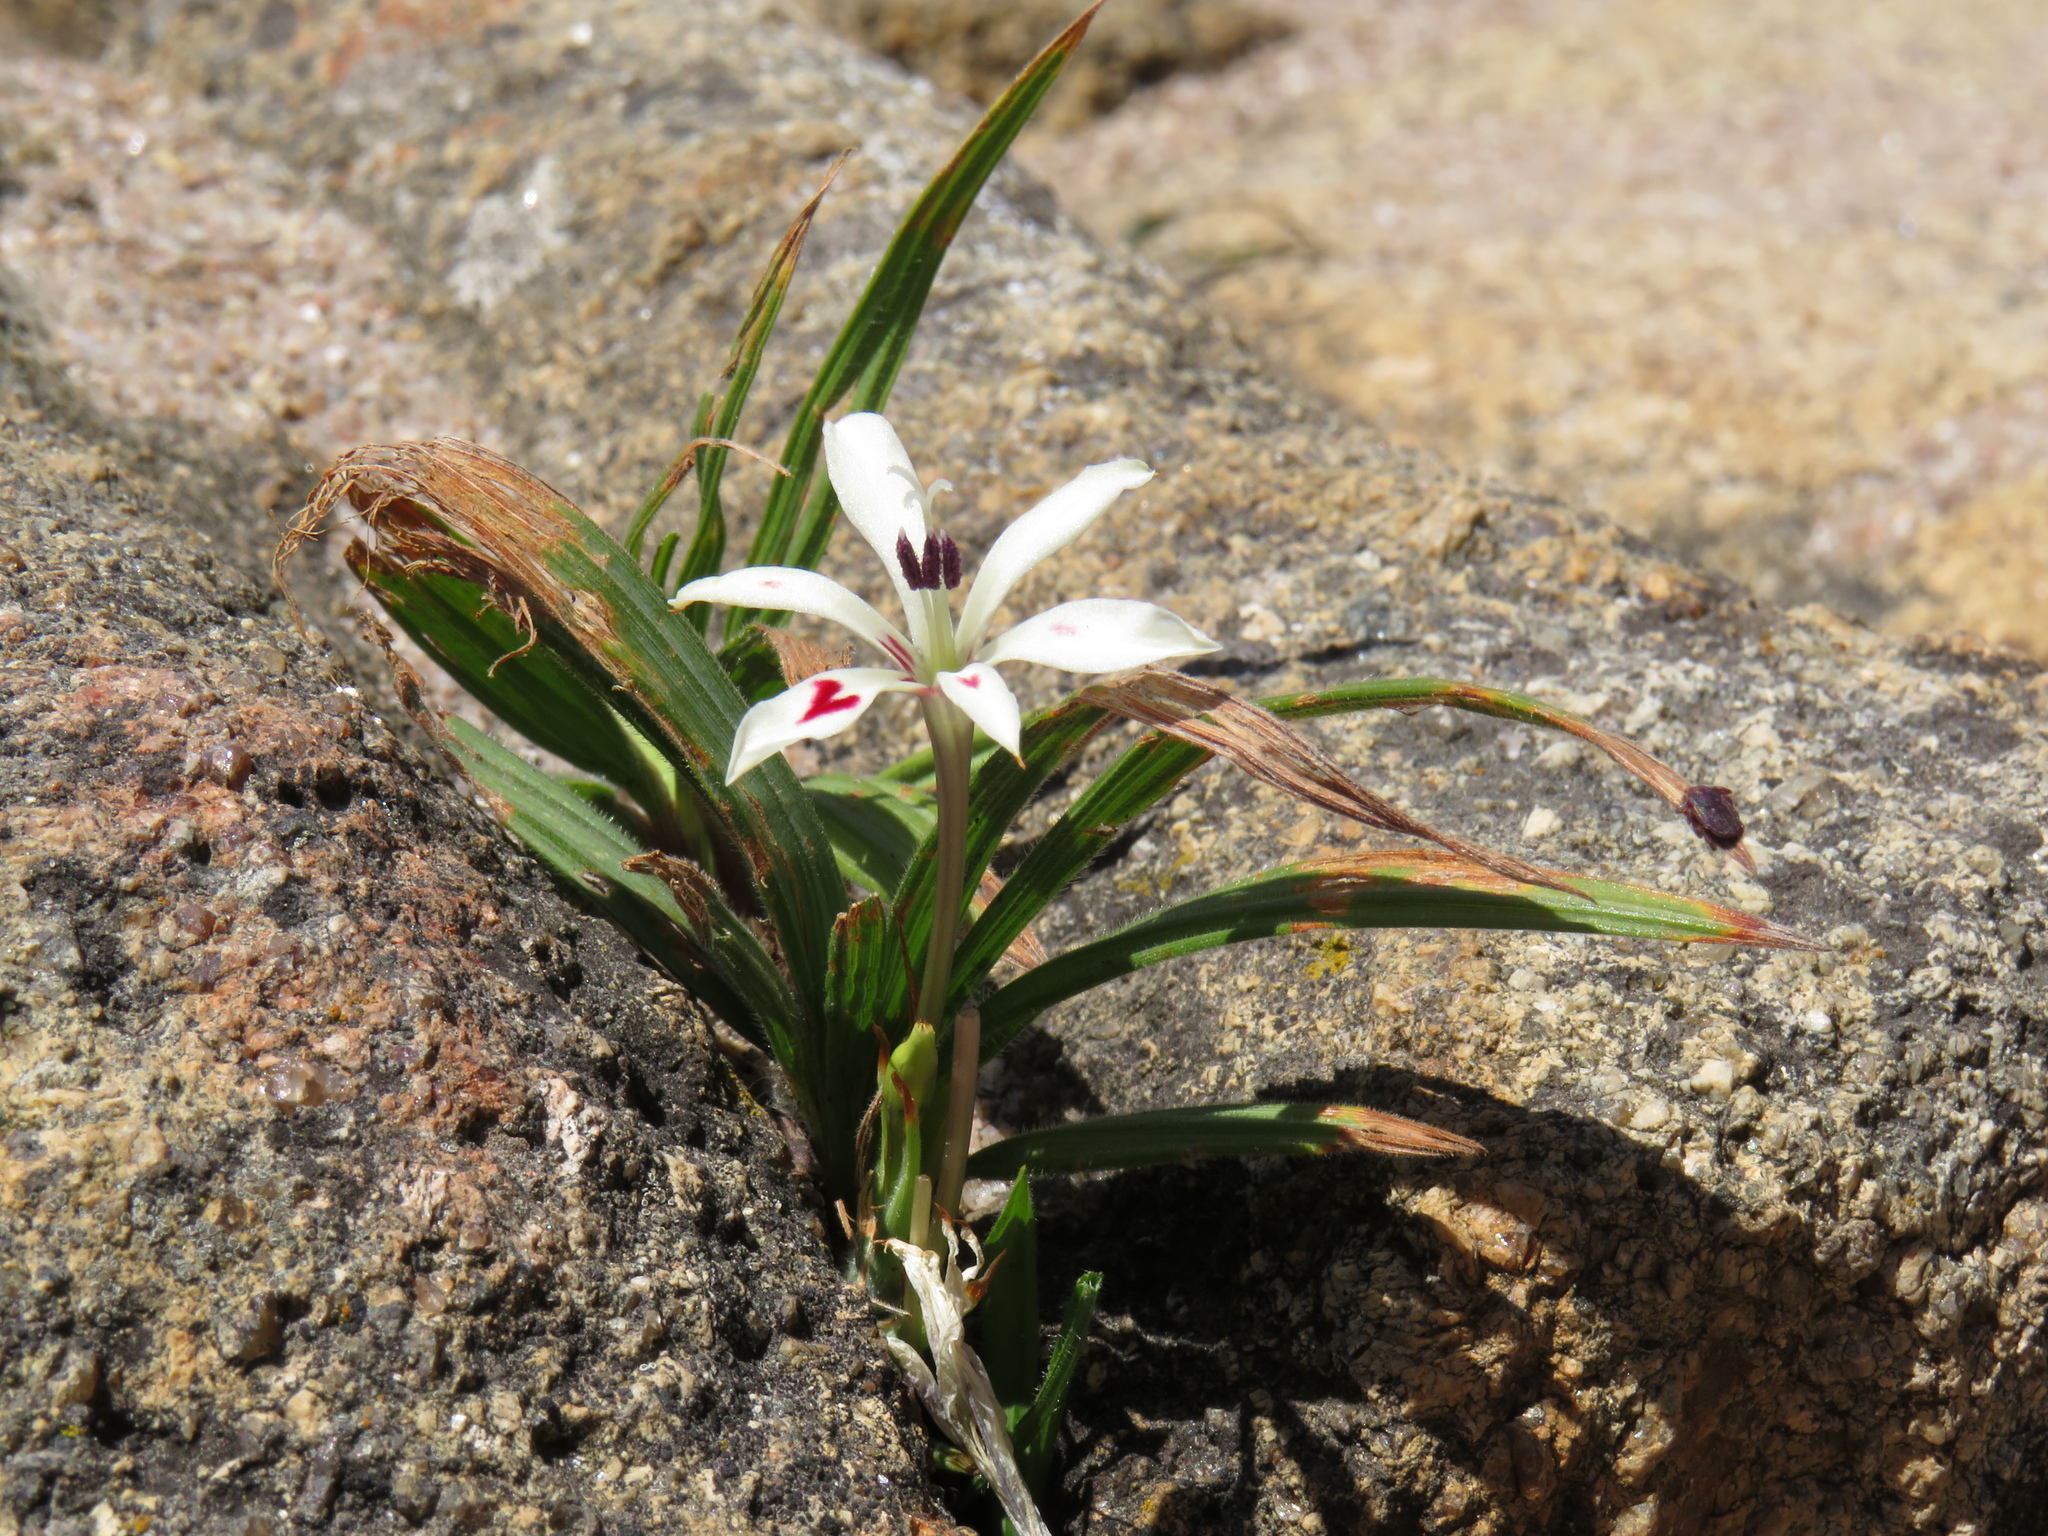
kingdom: Plantae
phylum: Tracheophyta
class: Liliopsida
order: Asparagales
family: Iridaceae
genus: Babiana
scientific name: Babiana tubiflora
